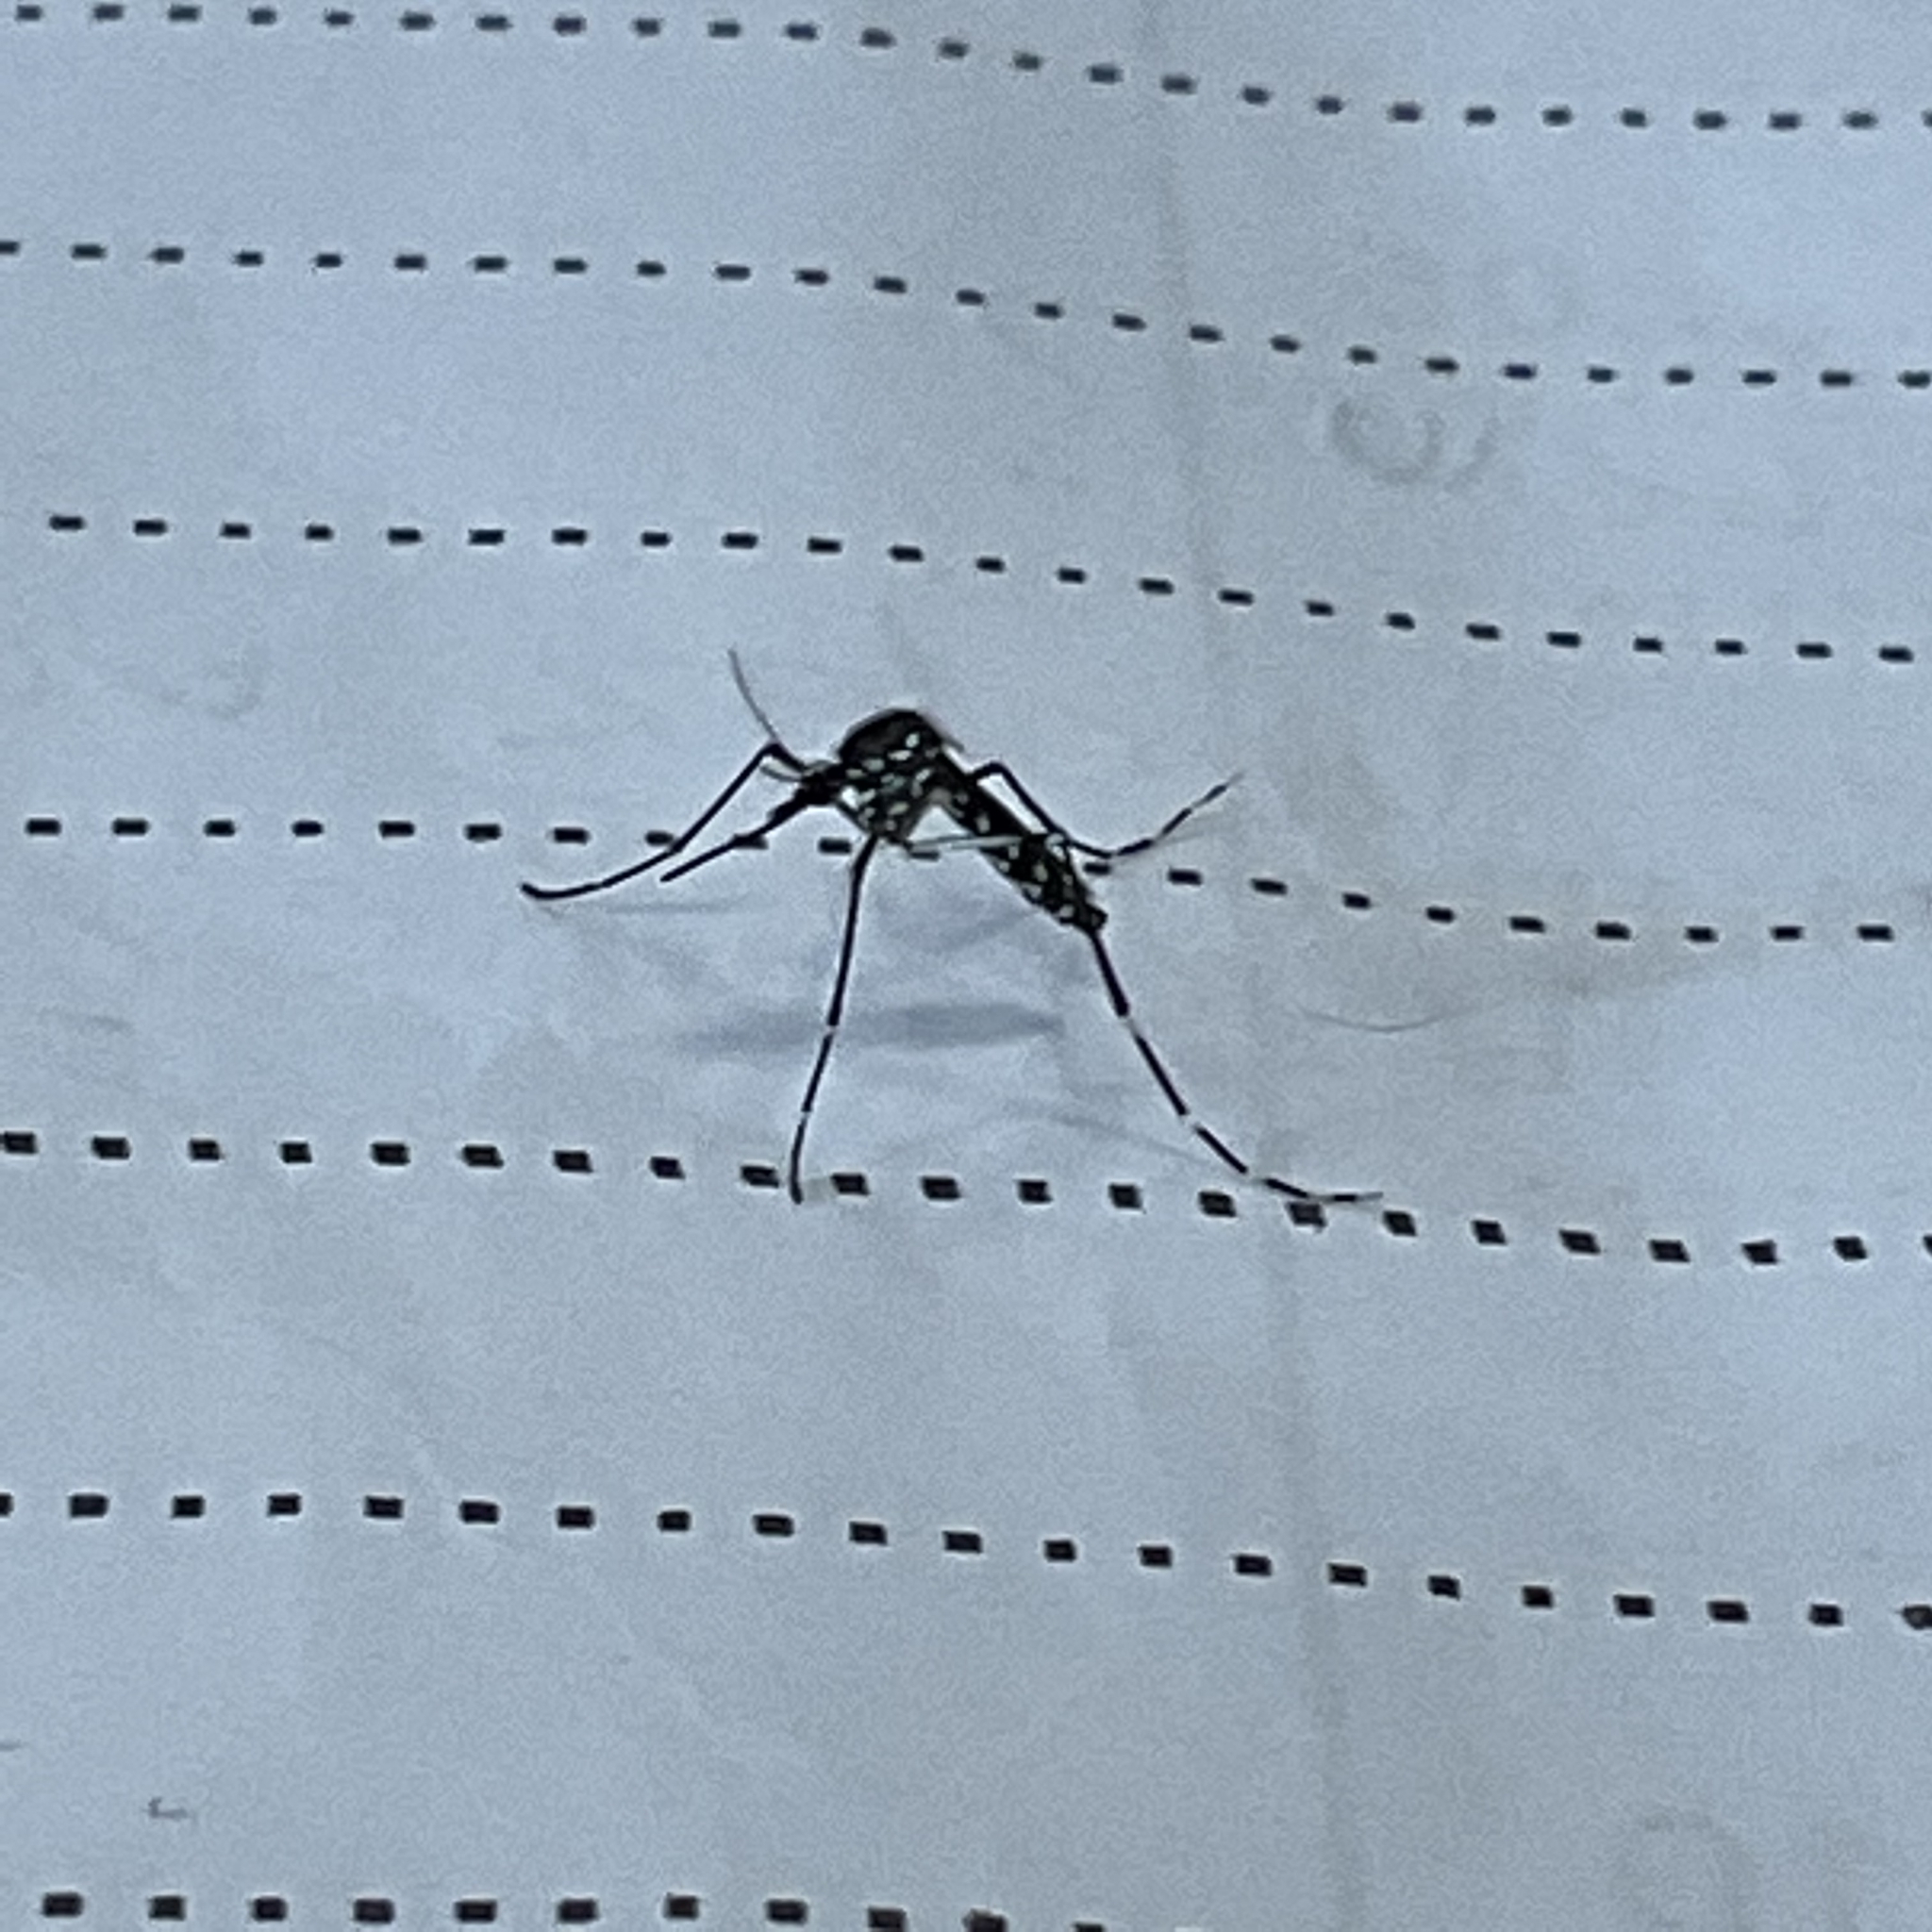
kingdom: Animalia
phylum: Arthropoda
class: Insecta
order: Diptera
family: Culicidae
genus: Aedes
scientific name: Aedes albopictus
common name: Tiger mosquito
